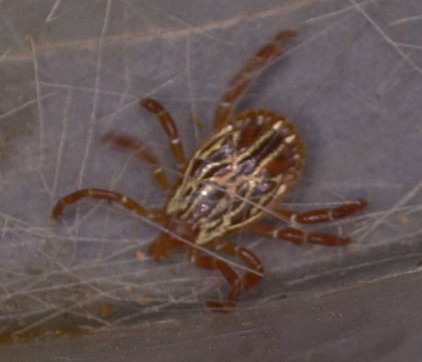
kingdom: Animalia
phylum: Arthropoda
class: Arachnida
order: Ixodida
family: Ixodidae
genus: Amblyomma
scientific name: Amblyomma maculatum
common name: Gulf coast tick
